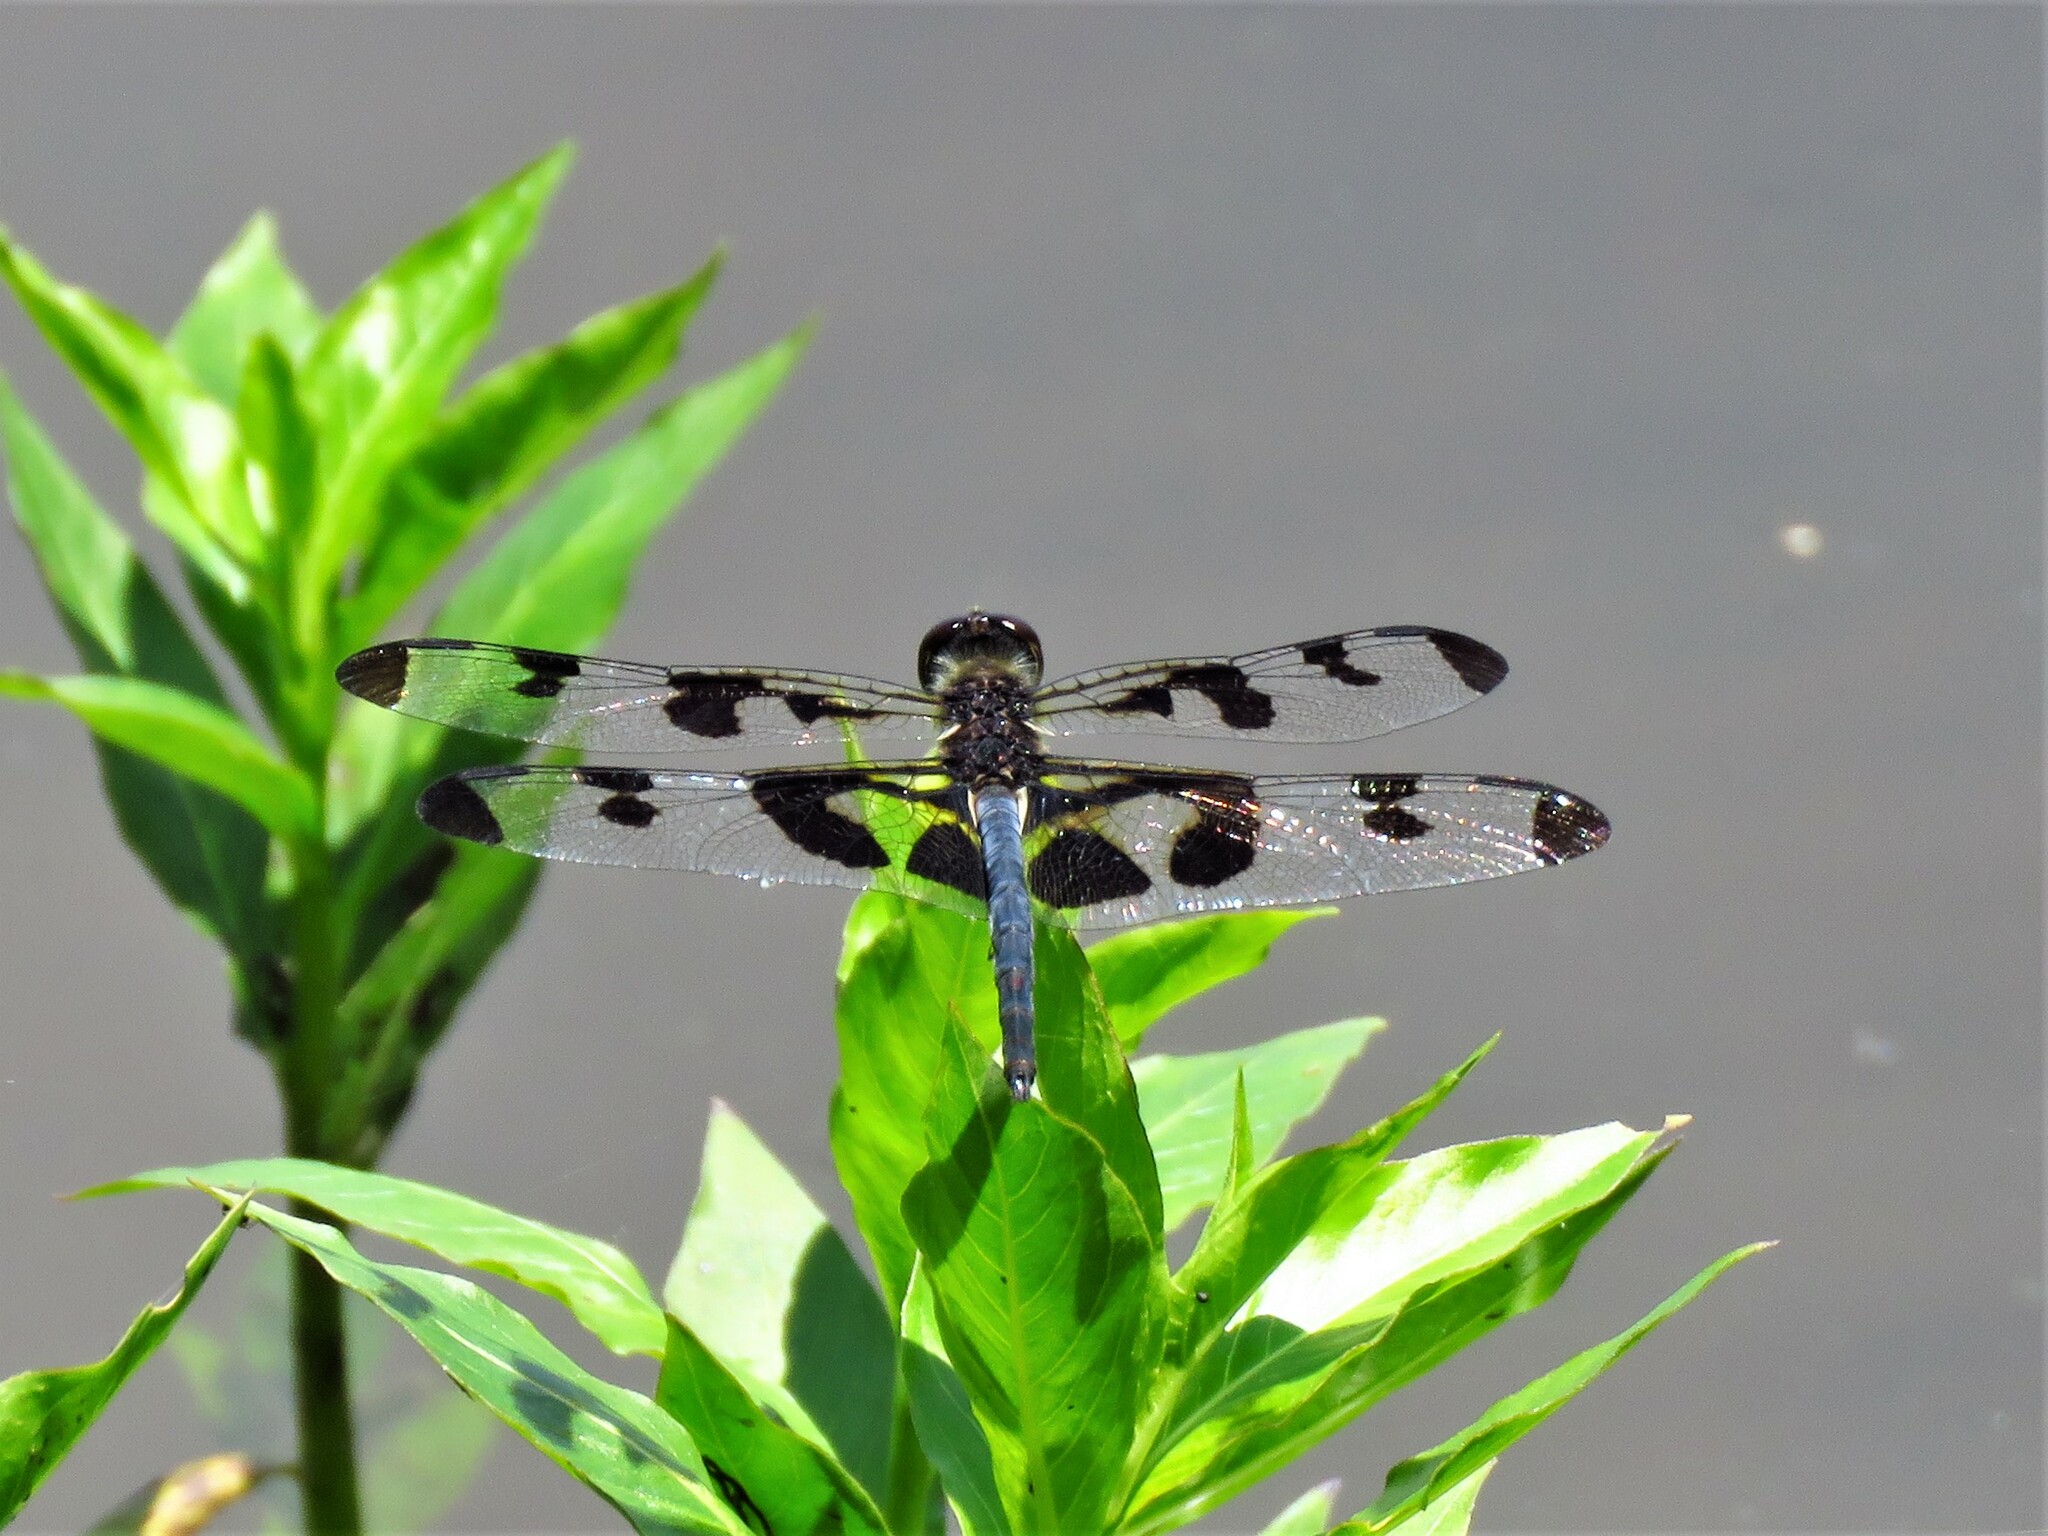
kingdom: Animalia
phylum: Arthropoda
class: Insecta
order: Odonata
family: Libellulidae
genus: Celithemis
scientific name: Celithemis fasciata
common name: Banded pennant
